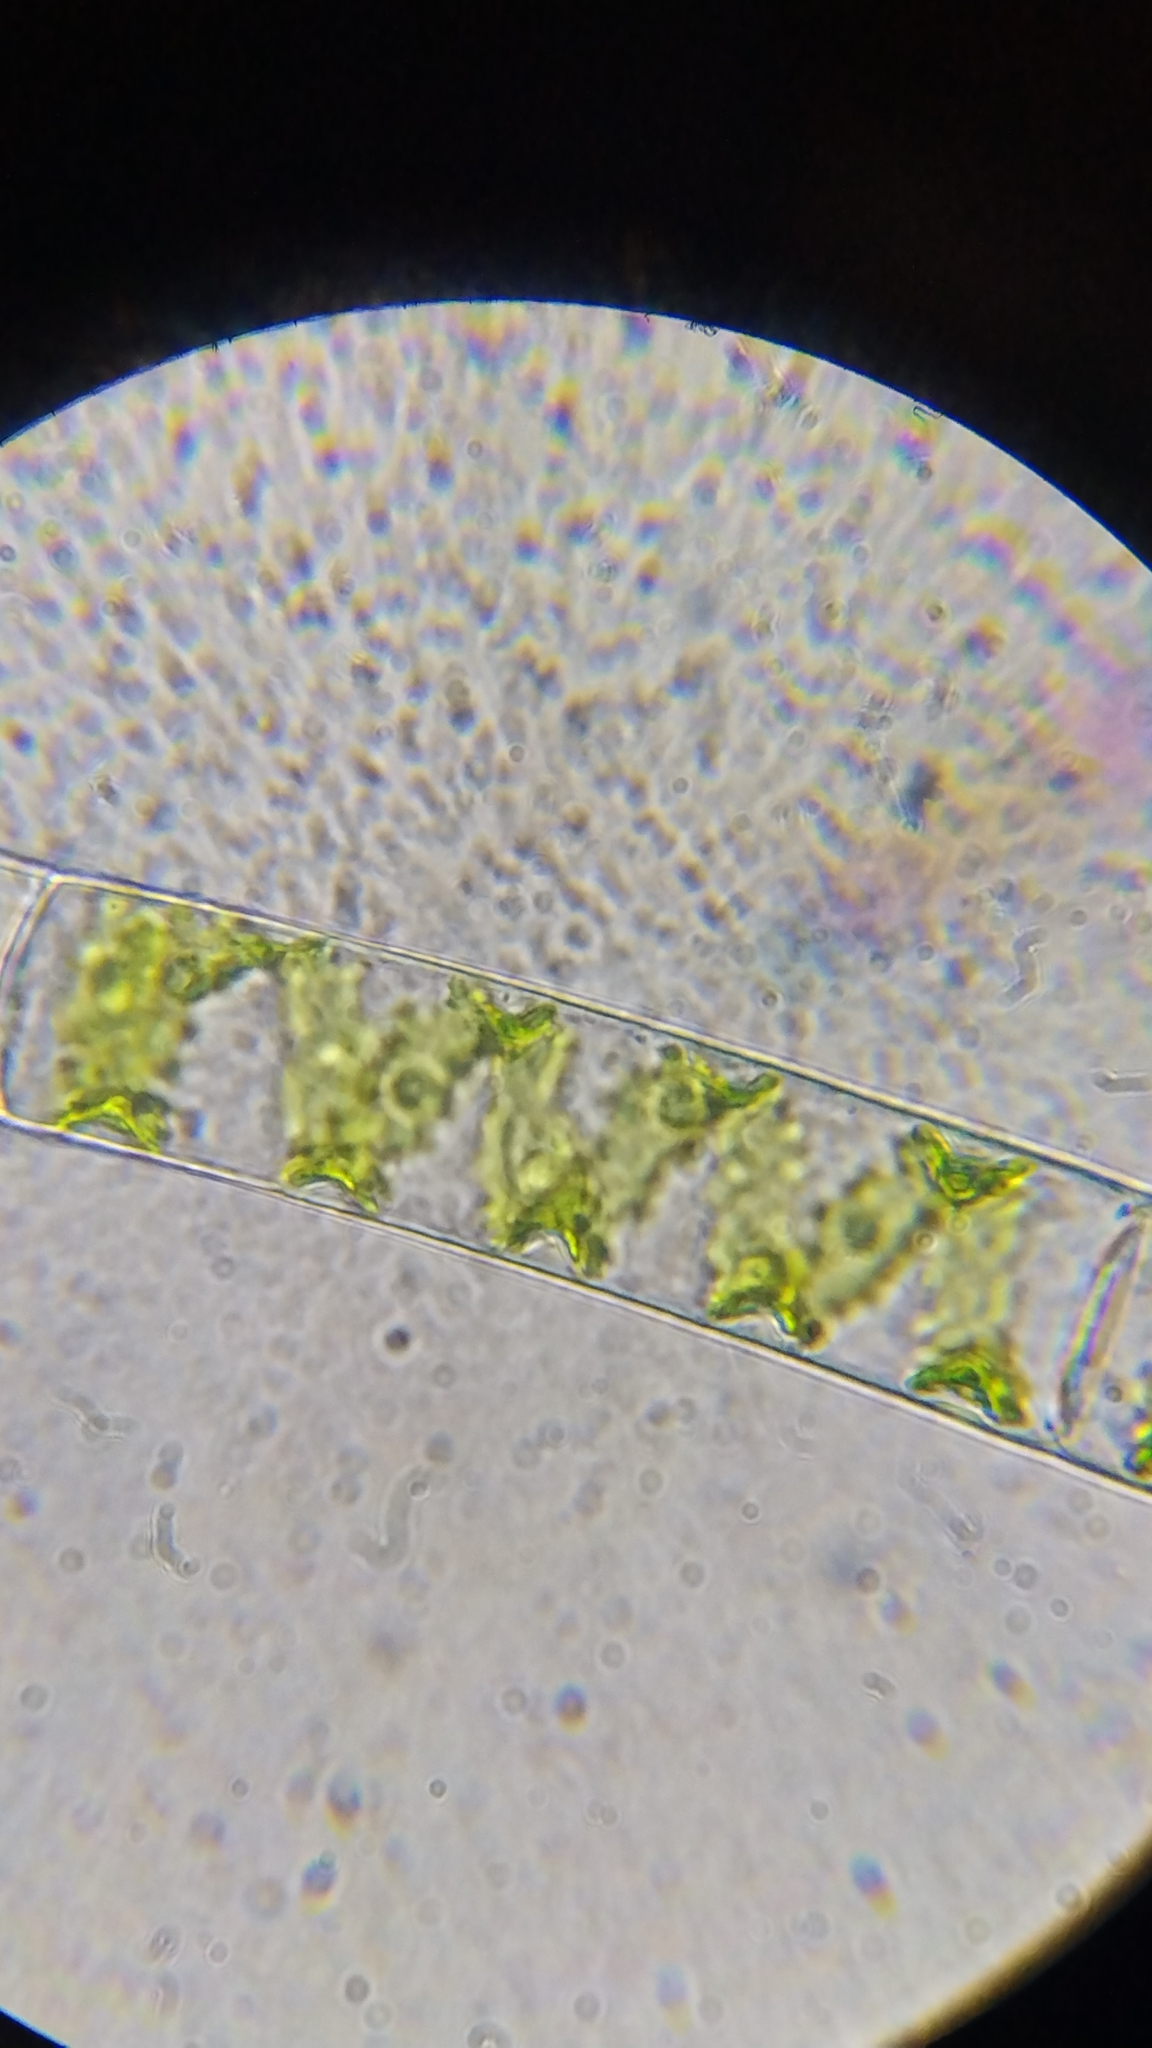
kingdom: Plantae
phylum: Charophyta
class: Zygnematophyceae
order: Zygnematales
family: Zygnemataceae
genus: Spirogyra
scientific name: Spirogyra
